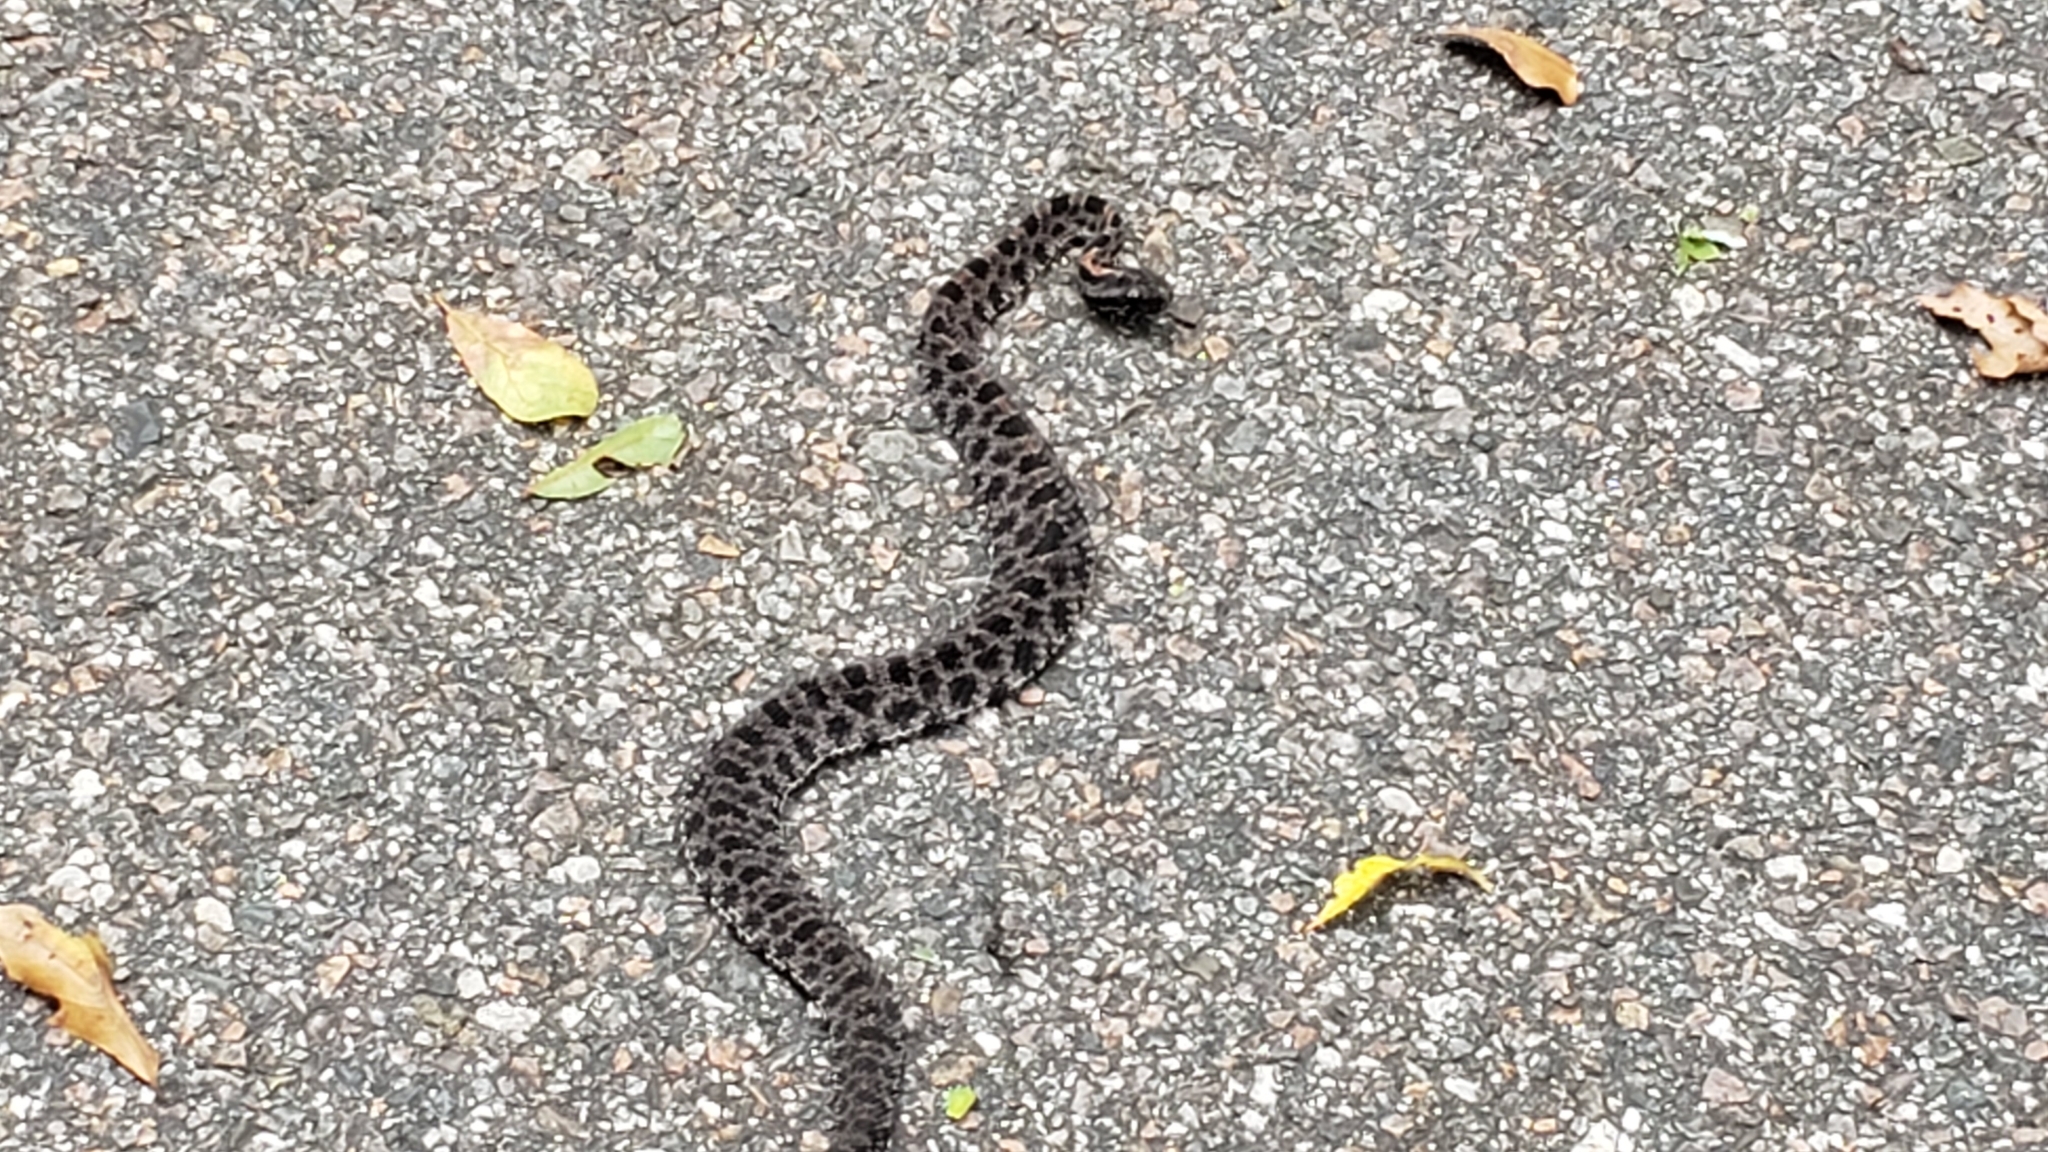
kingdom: Animalia
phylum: Chordata
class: Squamata
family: Viperidae
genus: Sistrurus
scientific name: Sistrurus miliarius
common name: Pygmy rattlesnake
